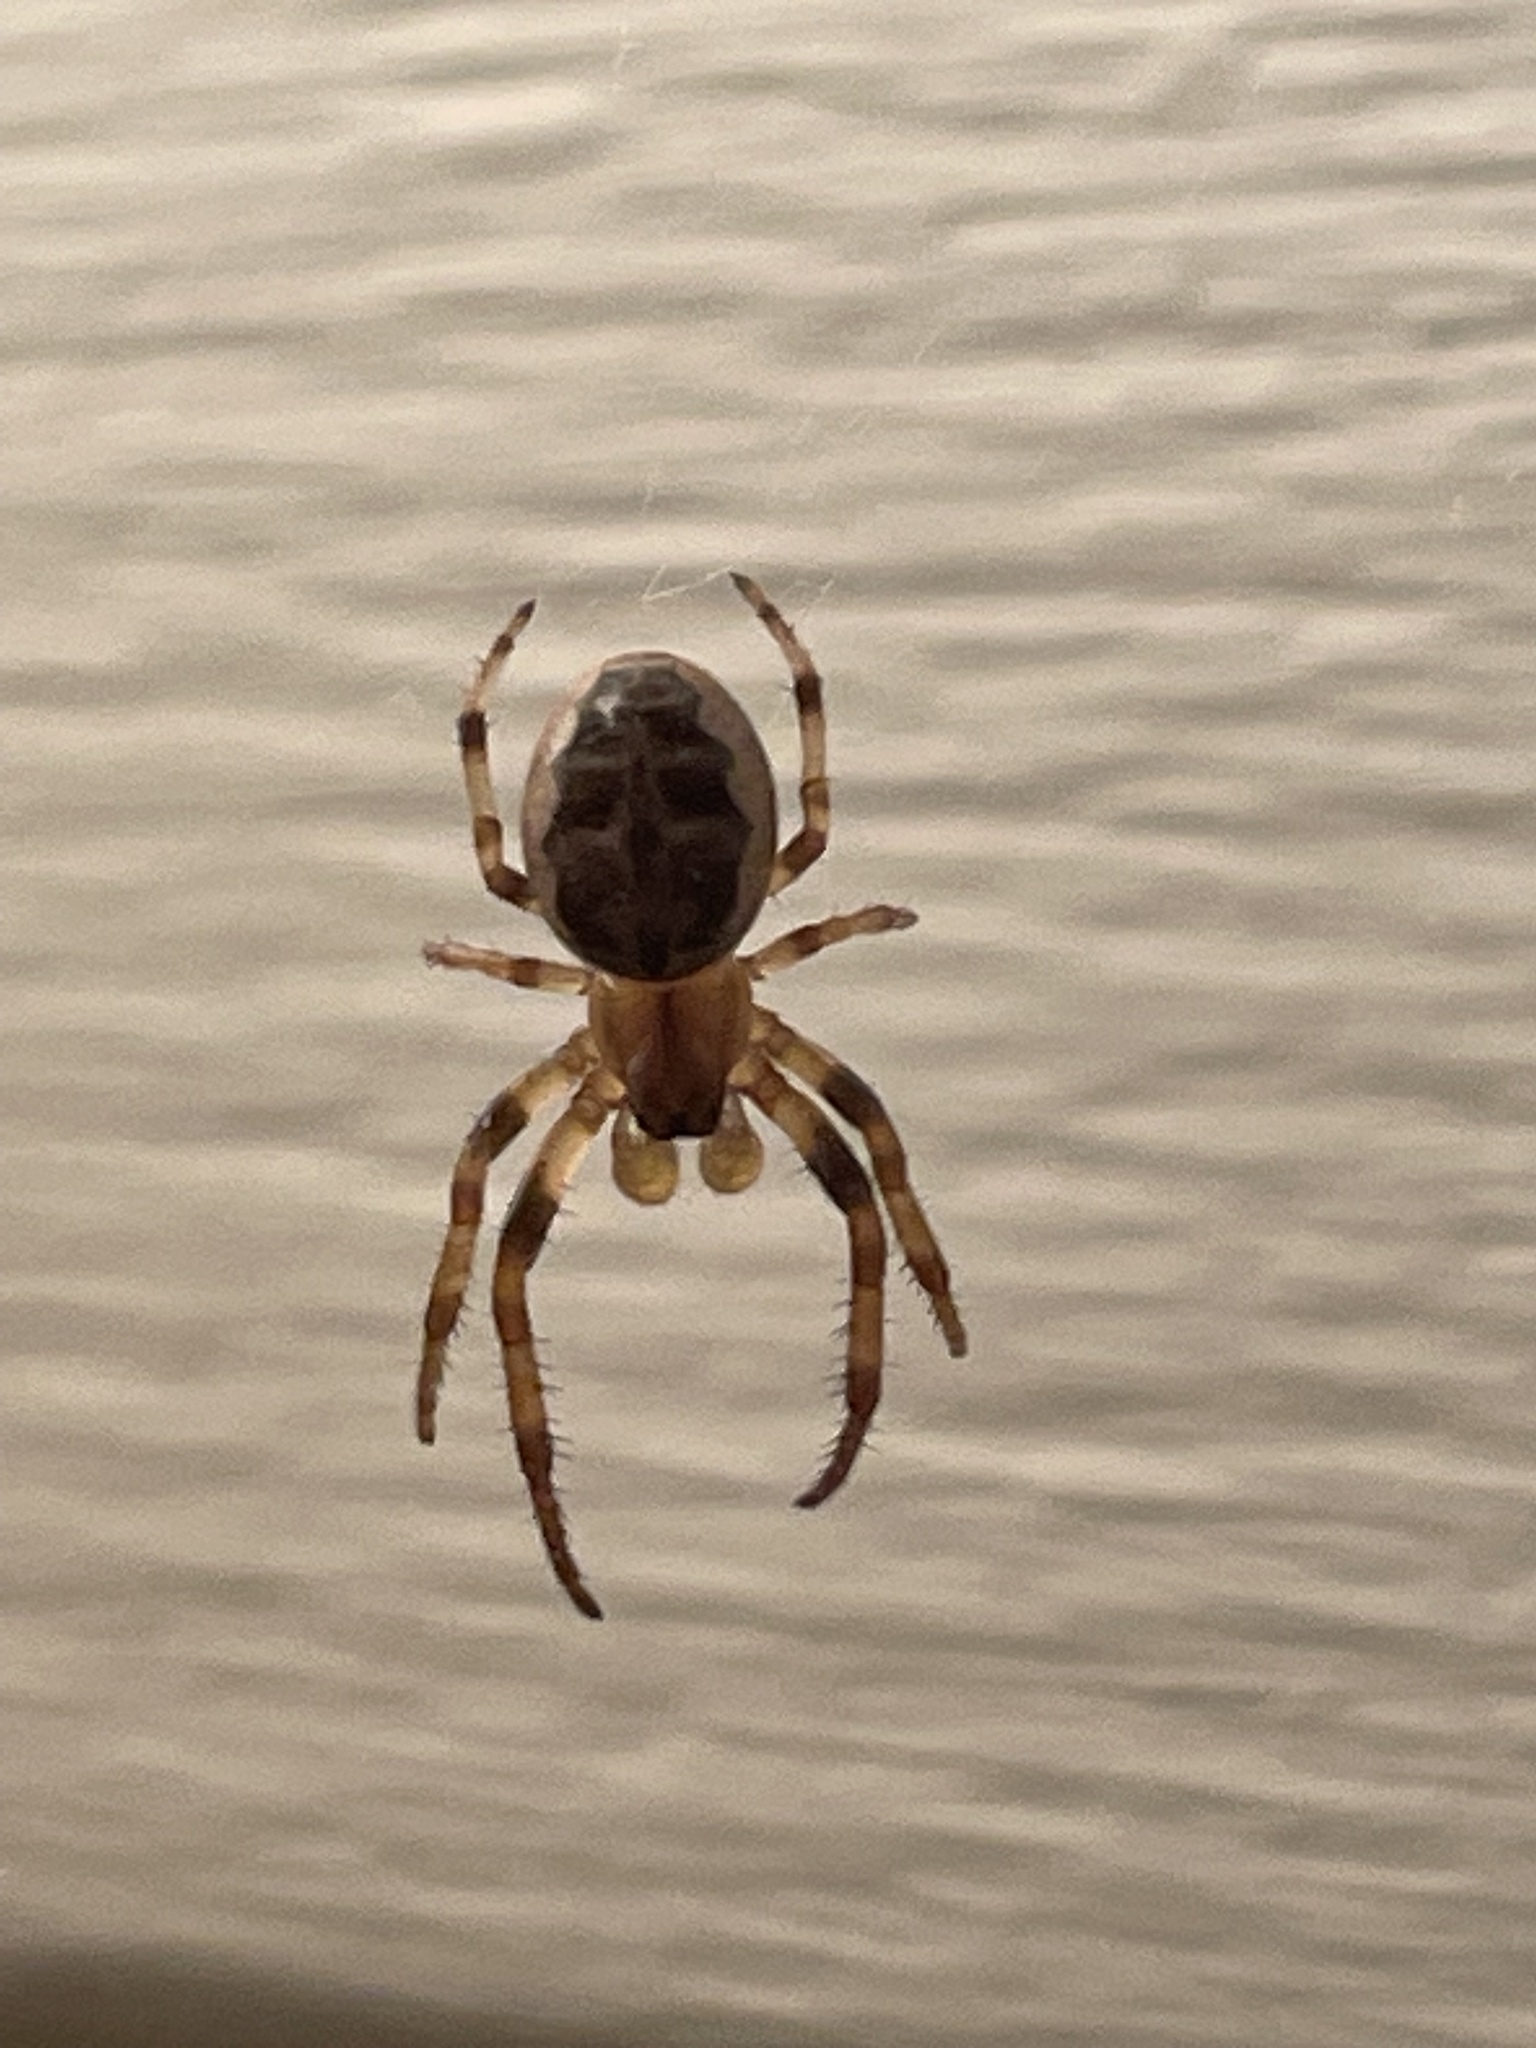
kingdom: Animalia
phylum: Arthropoda
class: Arachnida
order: Araneae
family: Araneidae
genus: Larinioides
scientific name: Larinioides cornutus
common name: Furrow orbweaver
